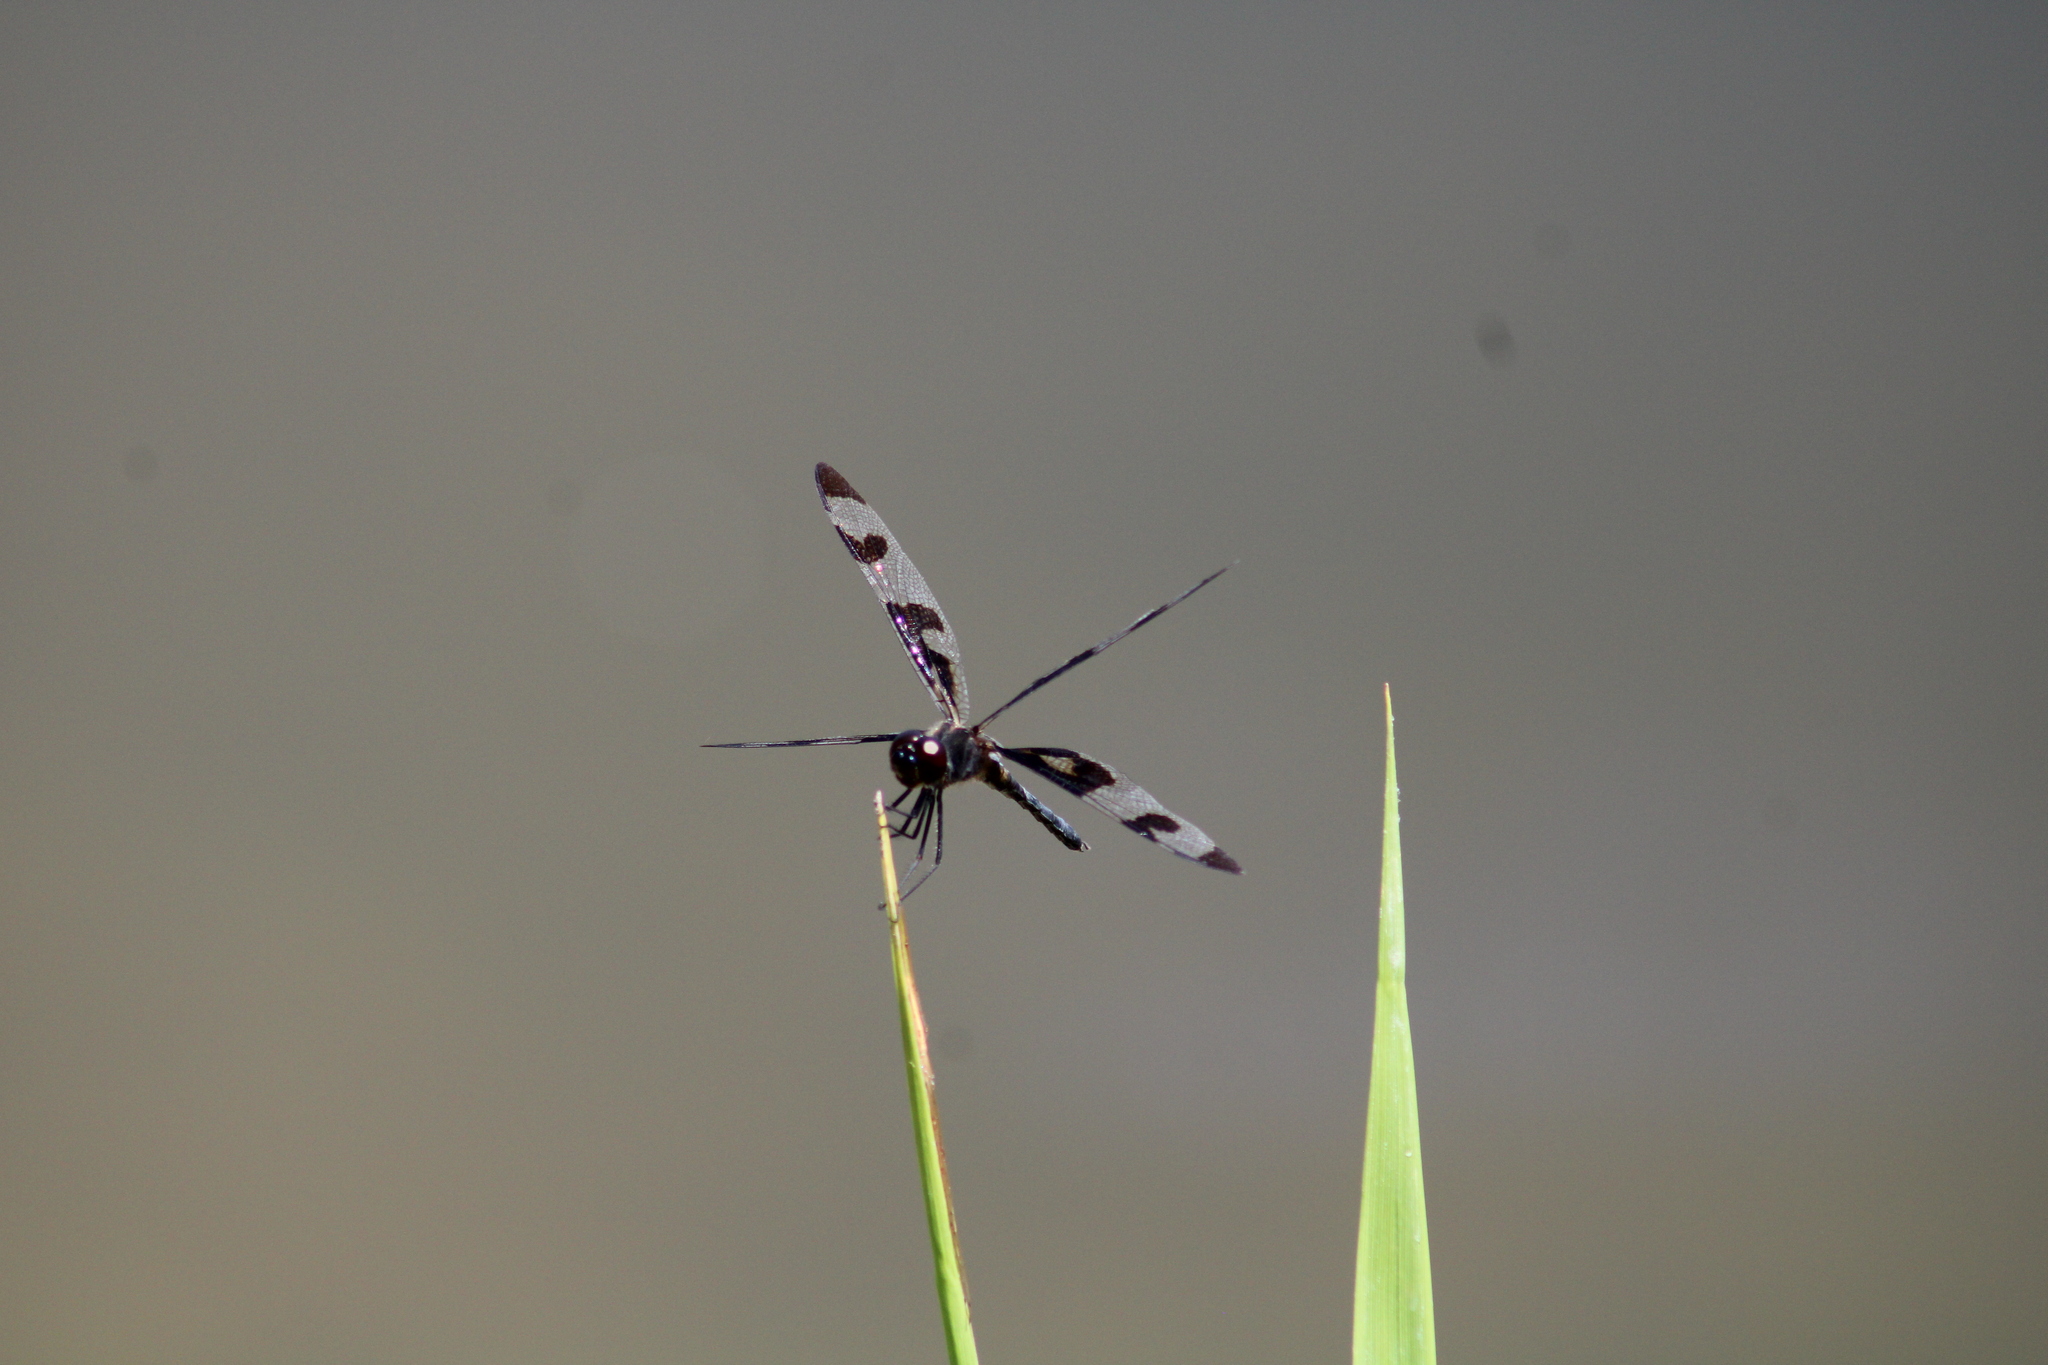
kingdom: Animalia
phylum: Arthropoda
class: Insecta
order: Odonata
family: Libellulidae
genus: Celithemis
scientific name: Celithemis fasciata
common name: Banded pennant
